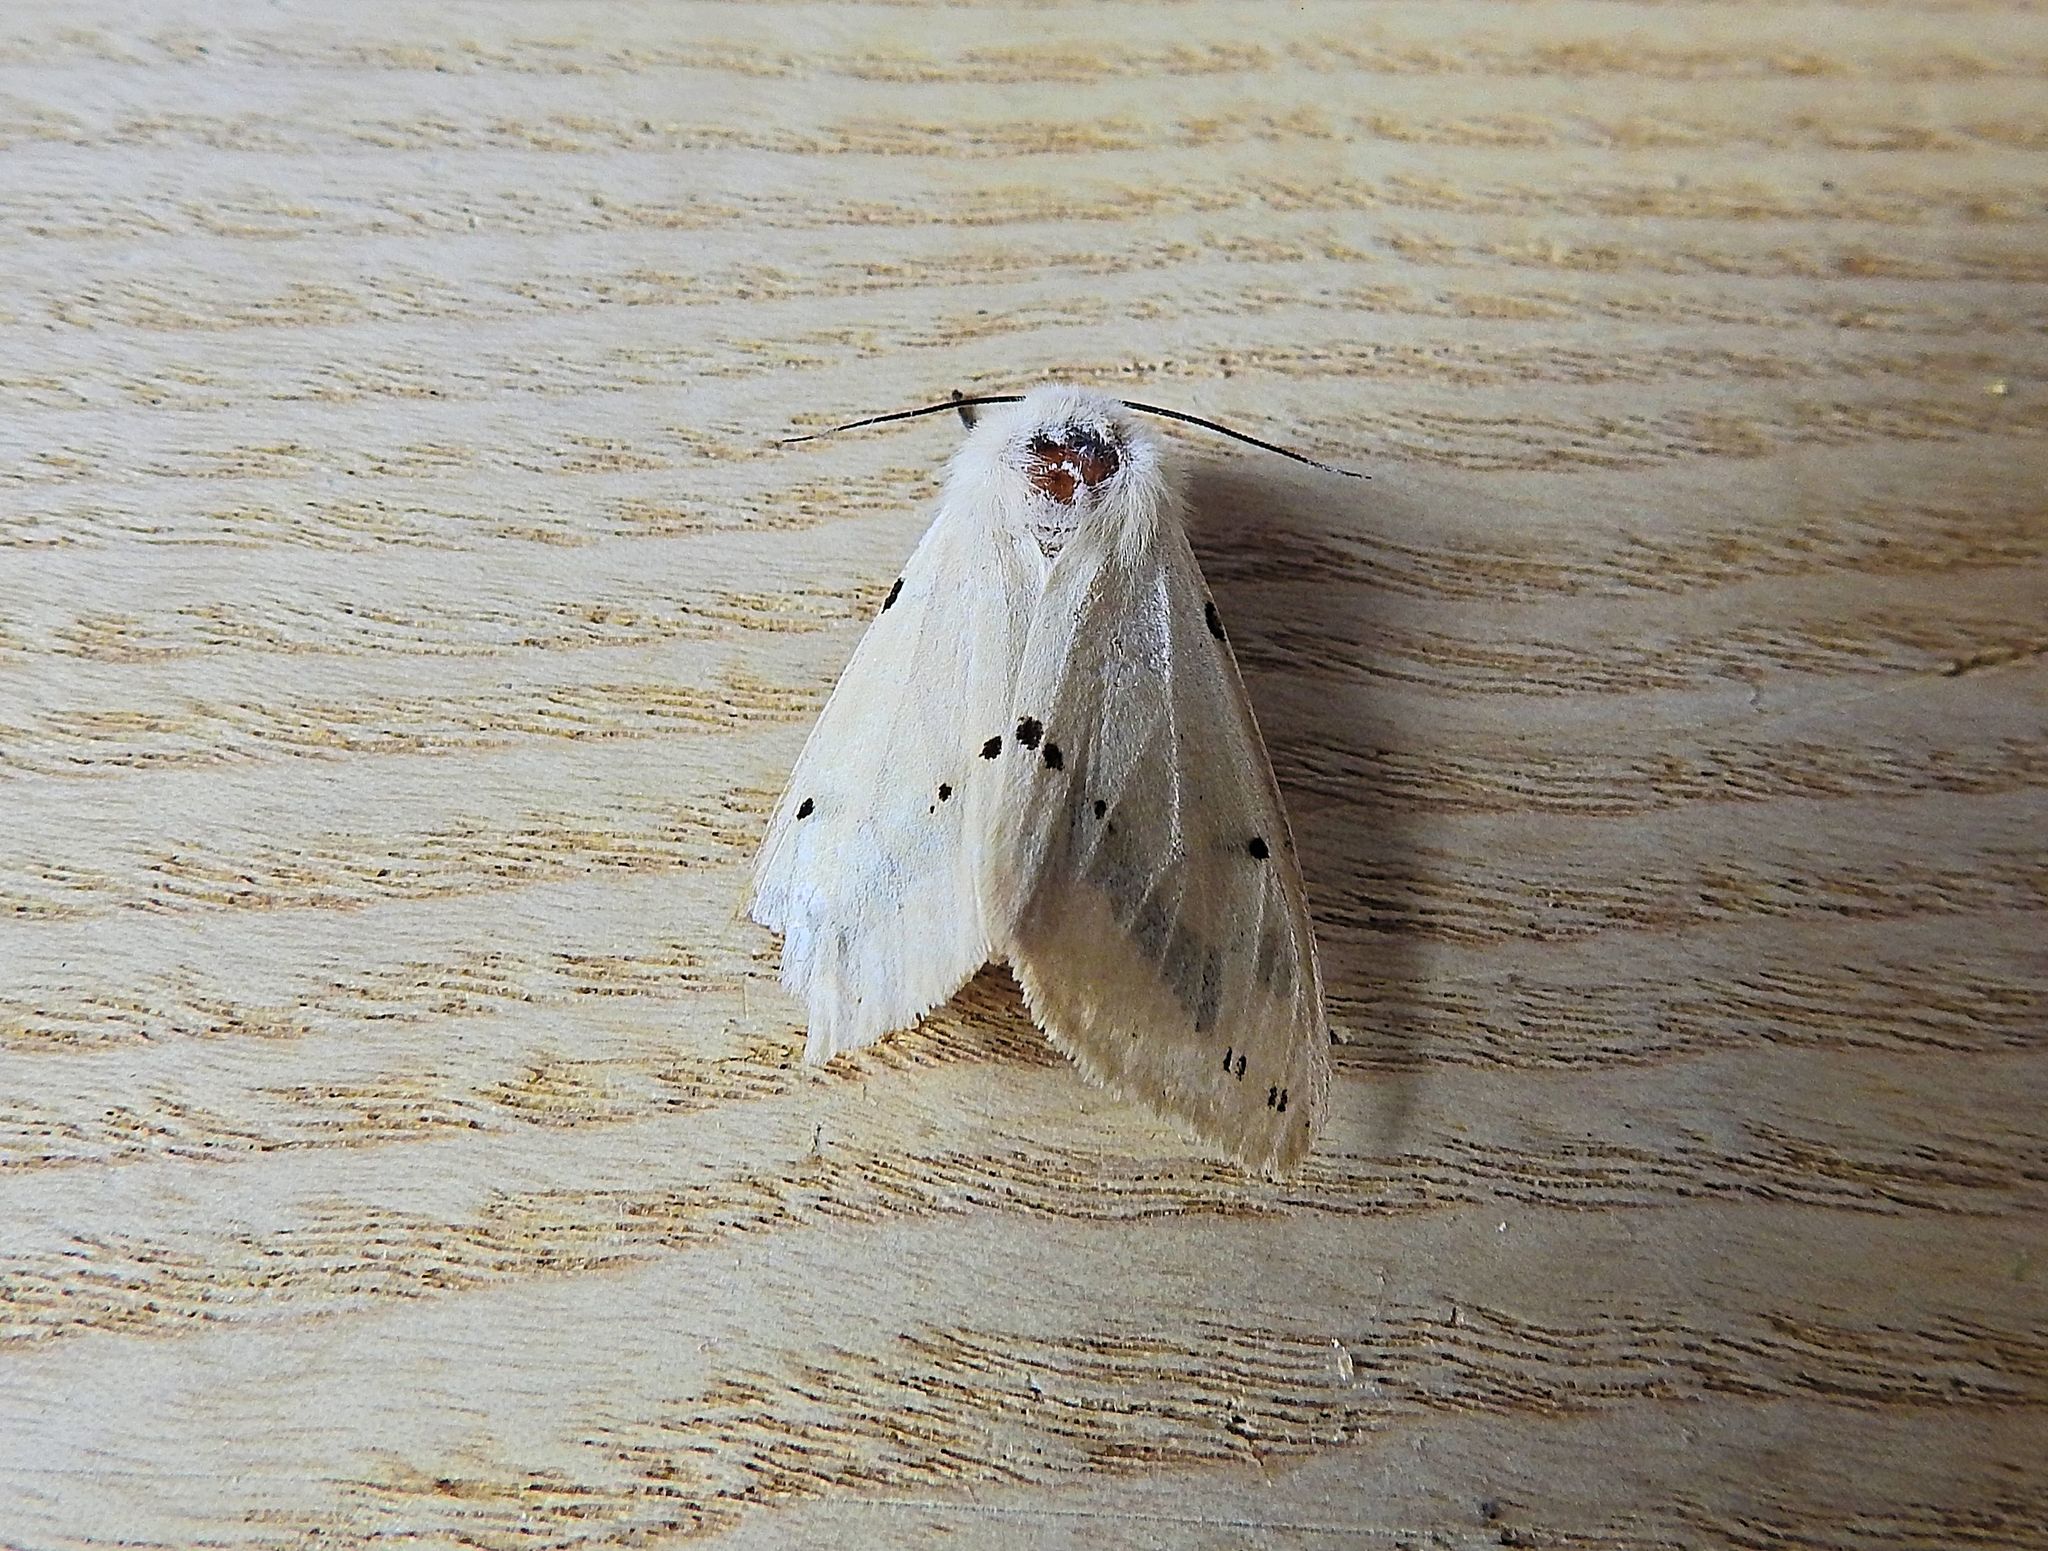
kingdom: Animalia
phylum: Arthropoda
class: Insecta
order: Lepidoptera
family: Erebidae
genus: Spilarctia
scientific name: Spilarctia lutea
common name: Buff ermine
